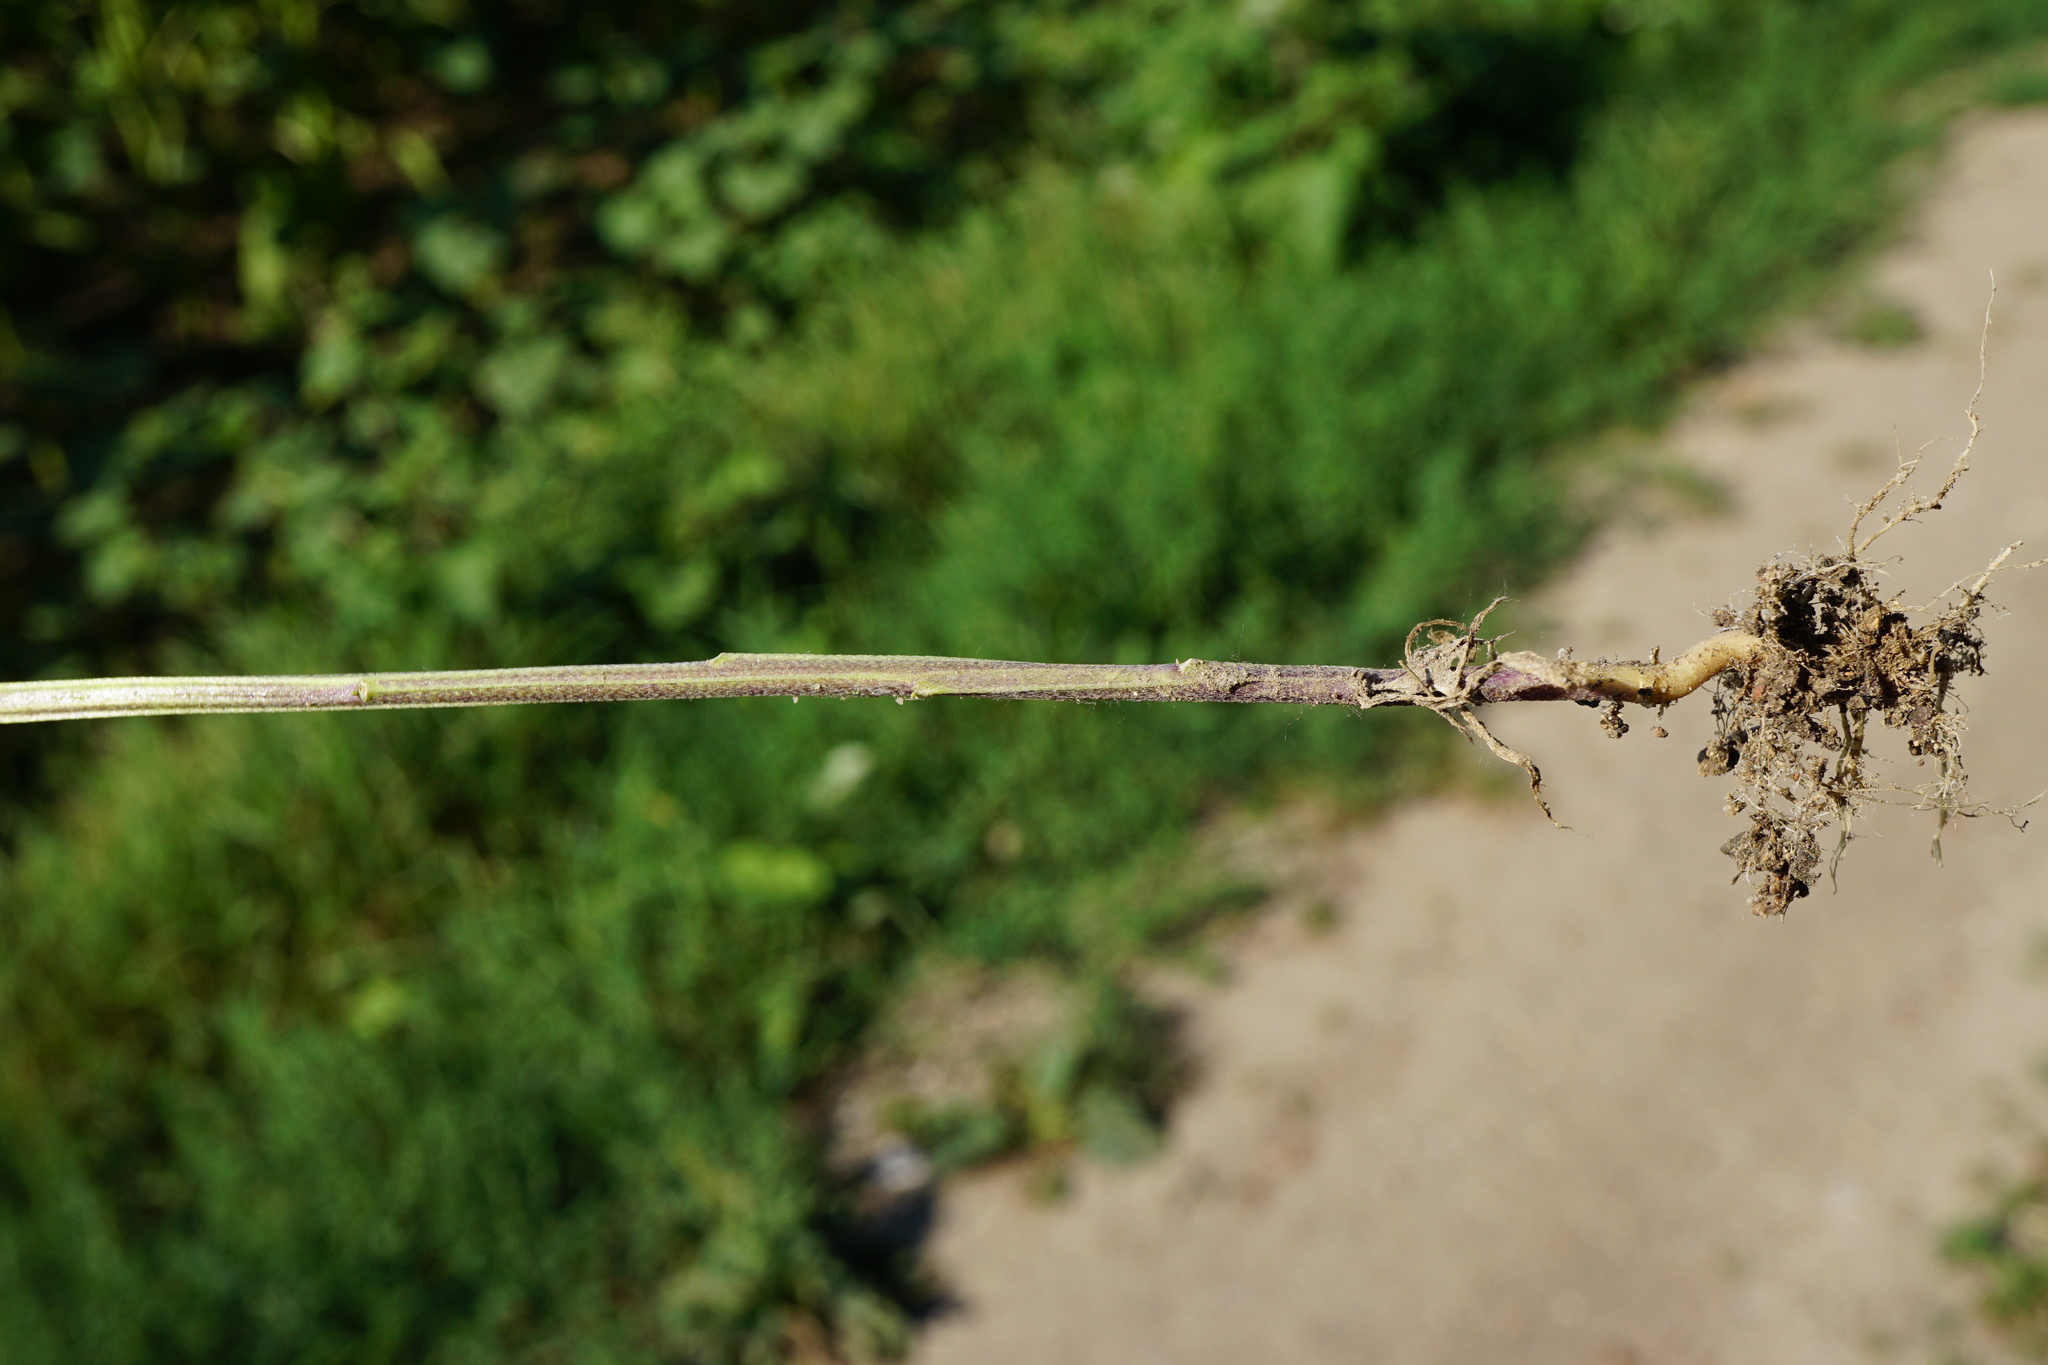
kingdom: Plantae
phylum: Tracheophyta
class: Magnoliopsida
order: Brassicales
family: Brassicaceae
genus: Erysimum
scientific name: Erysimum cheiranthoides
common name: Treacle mustard
